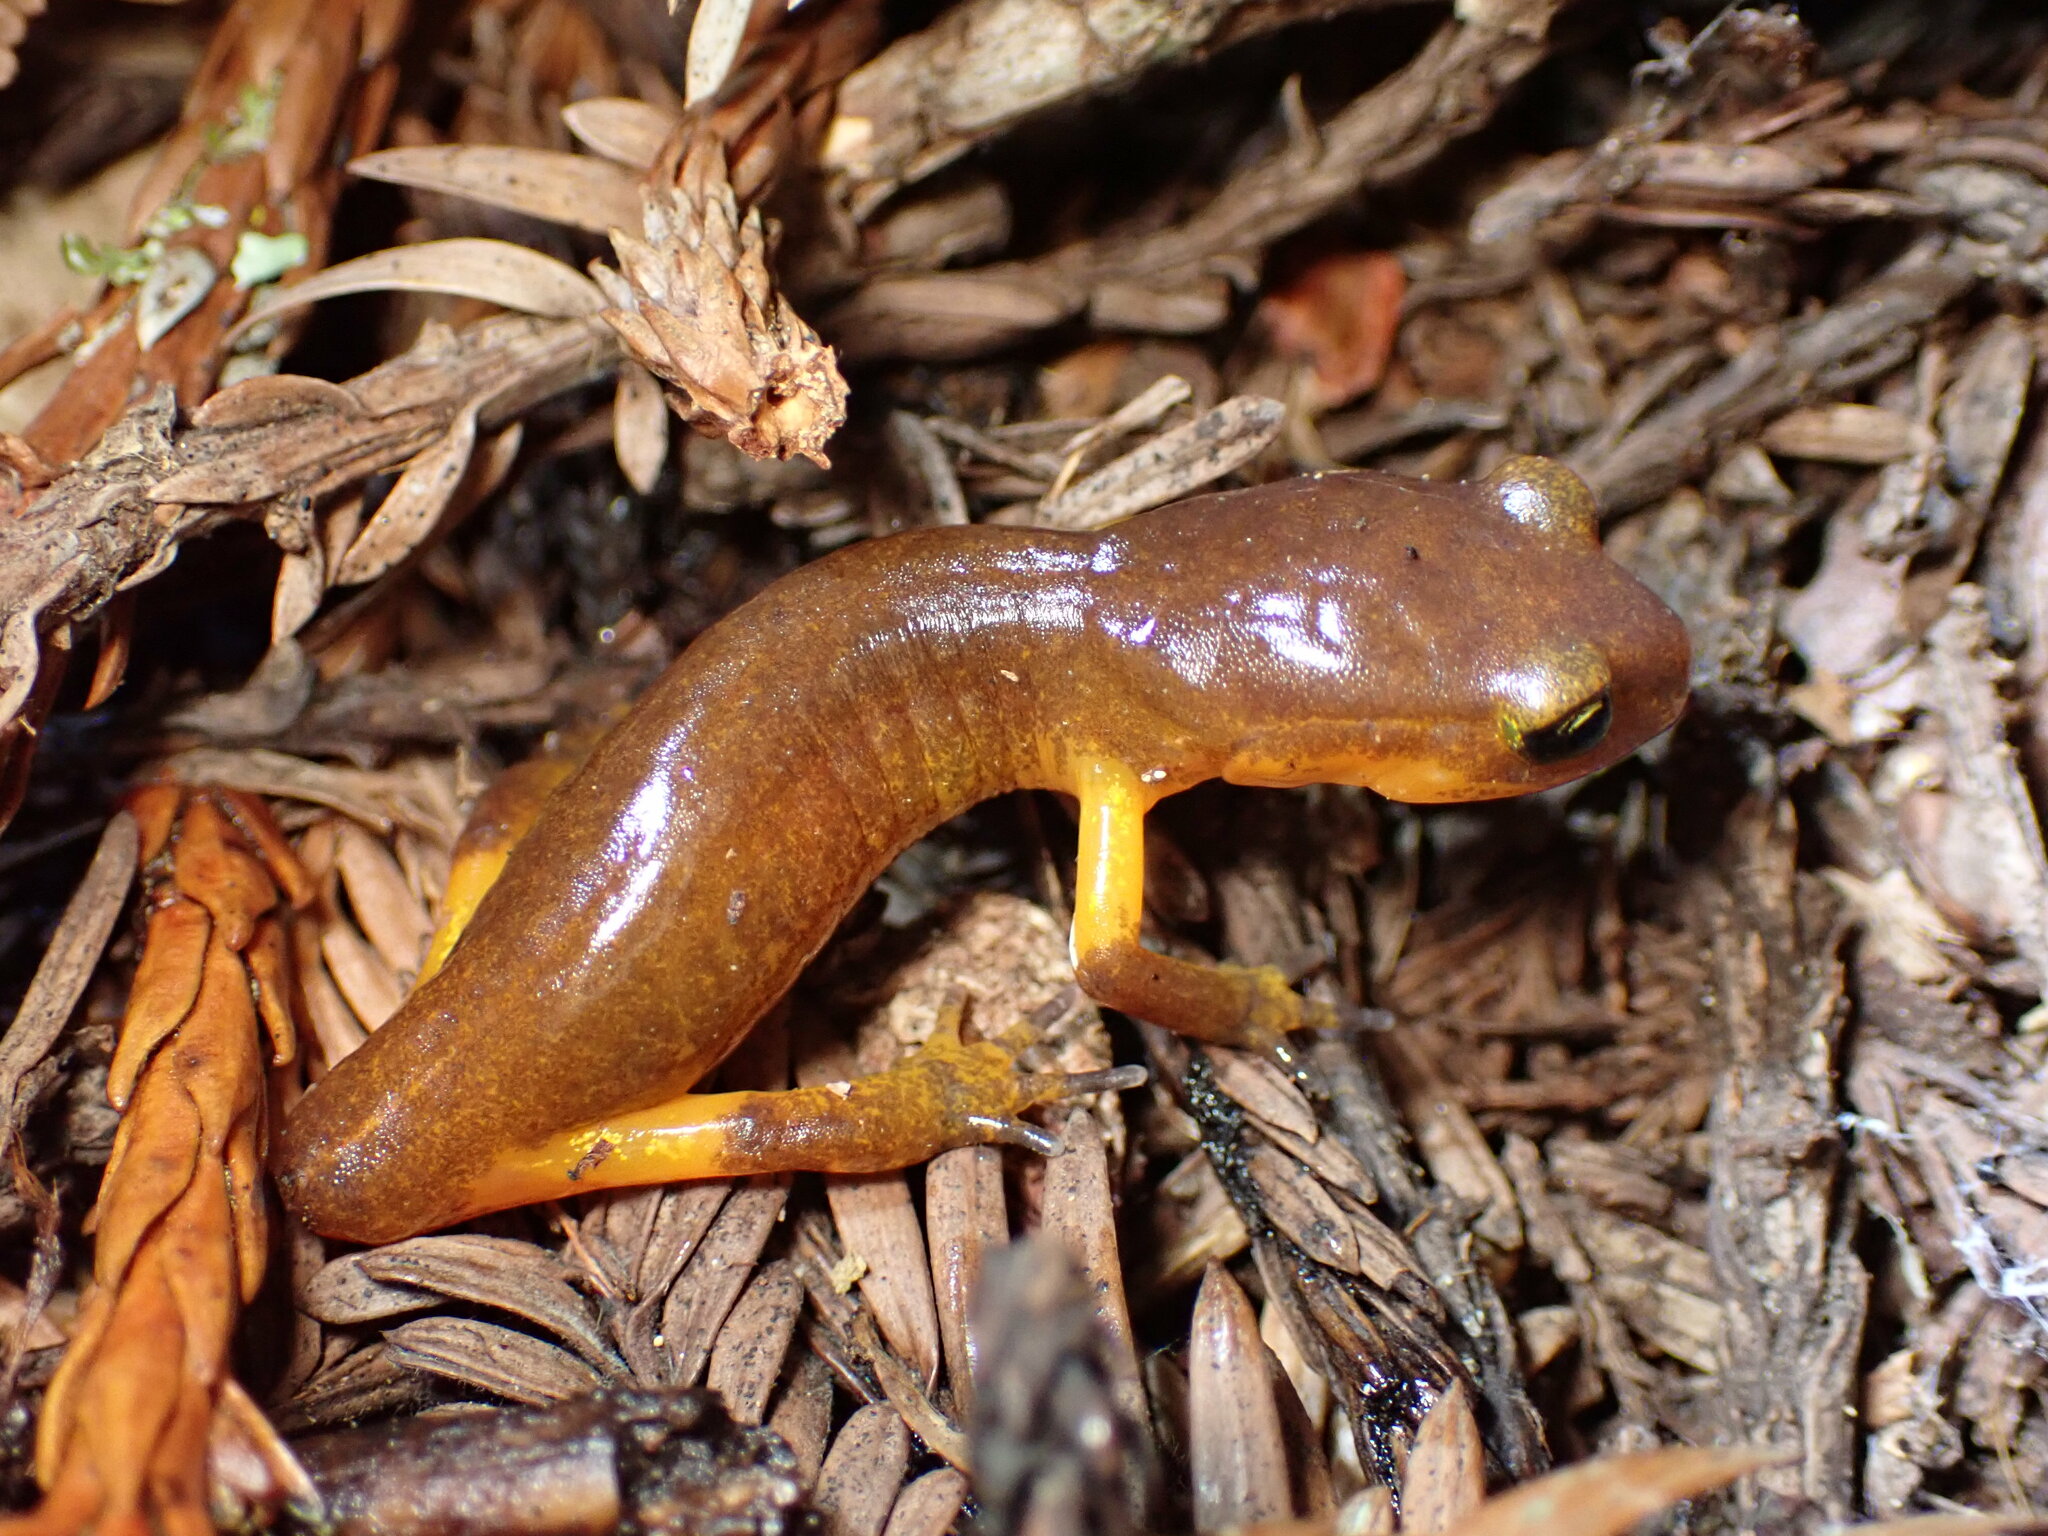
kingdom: Animalia
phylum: Chordata
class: Amphibia
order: Caudata
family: Plethodontidae
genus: Ensatina
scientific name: Ensatina eschscholtzii
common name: Ensatina
